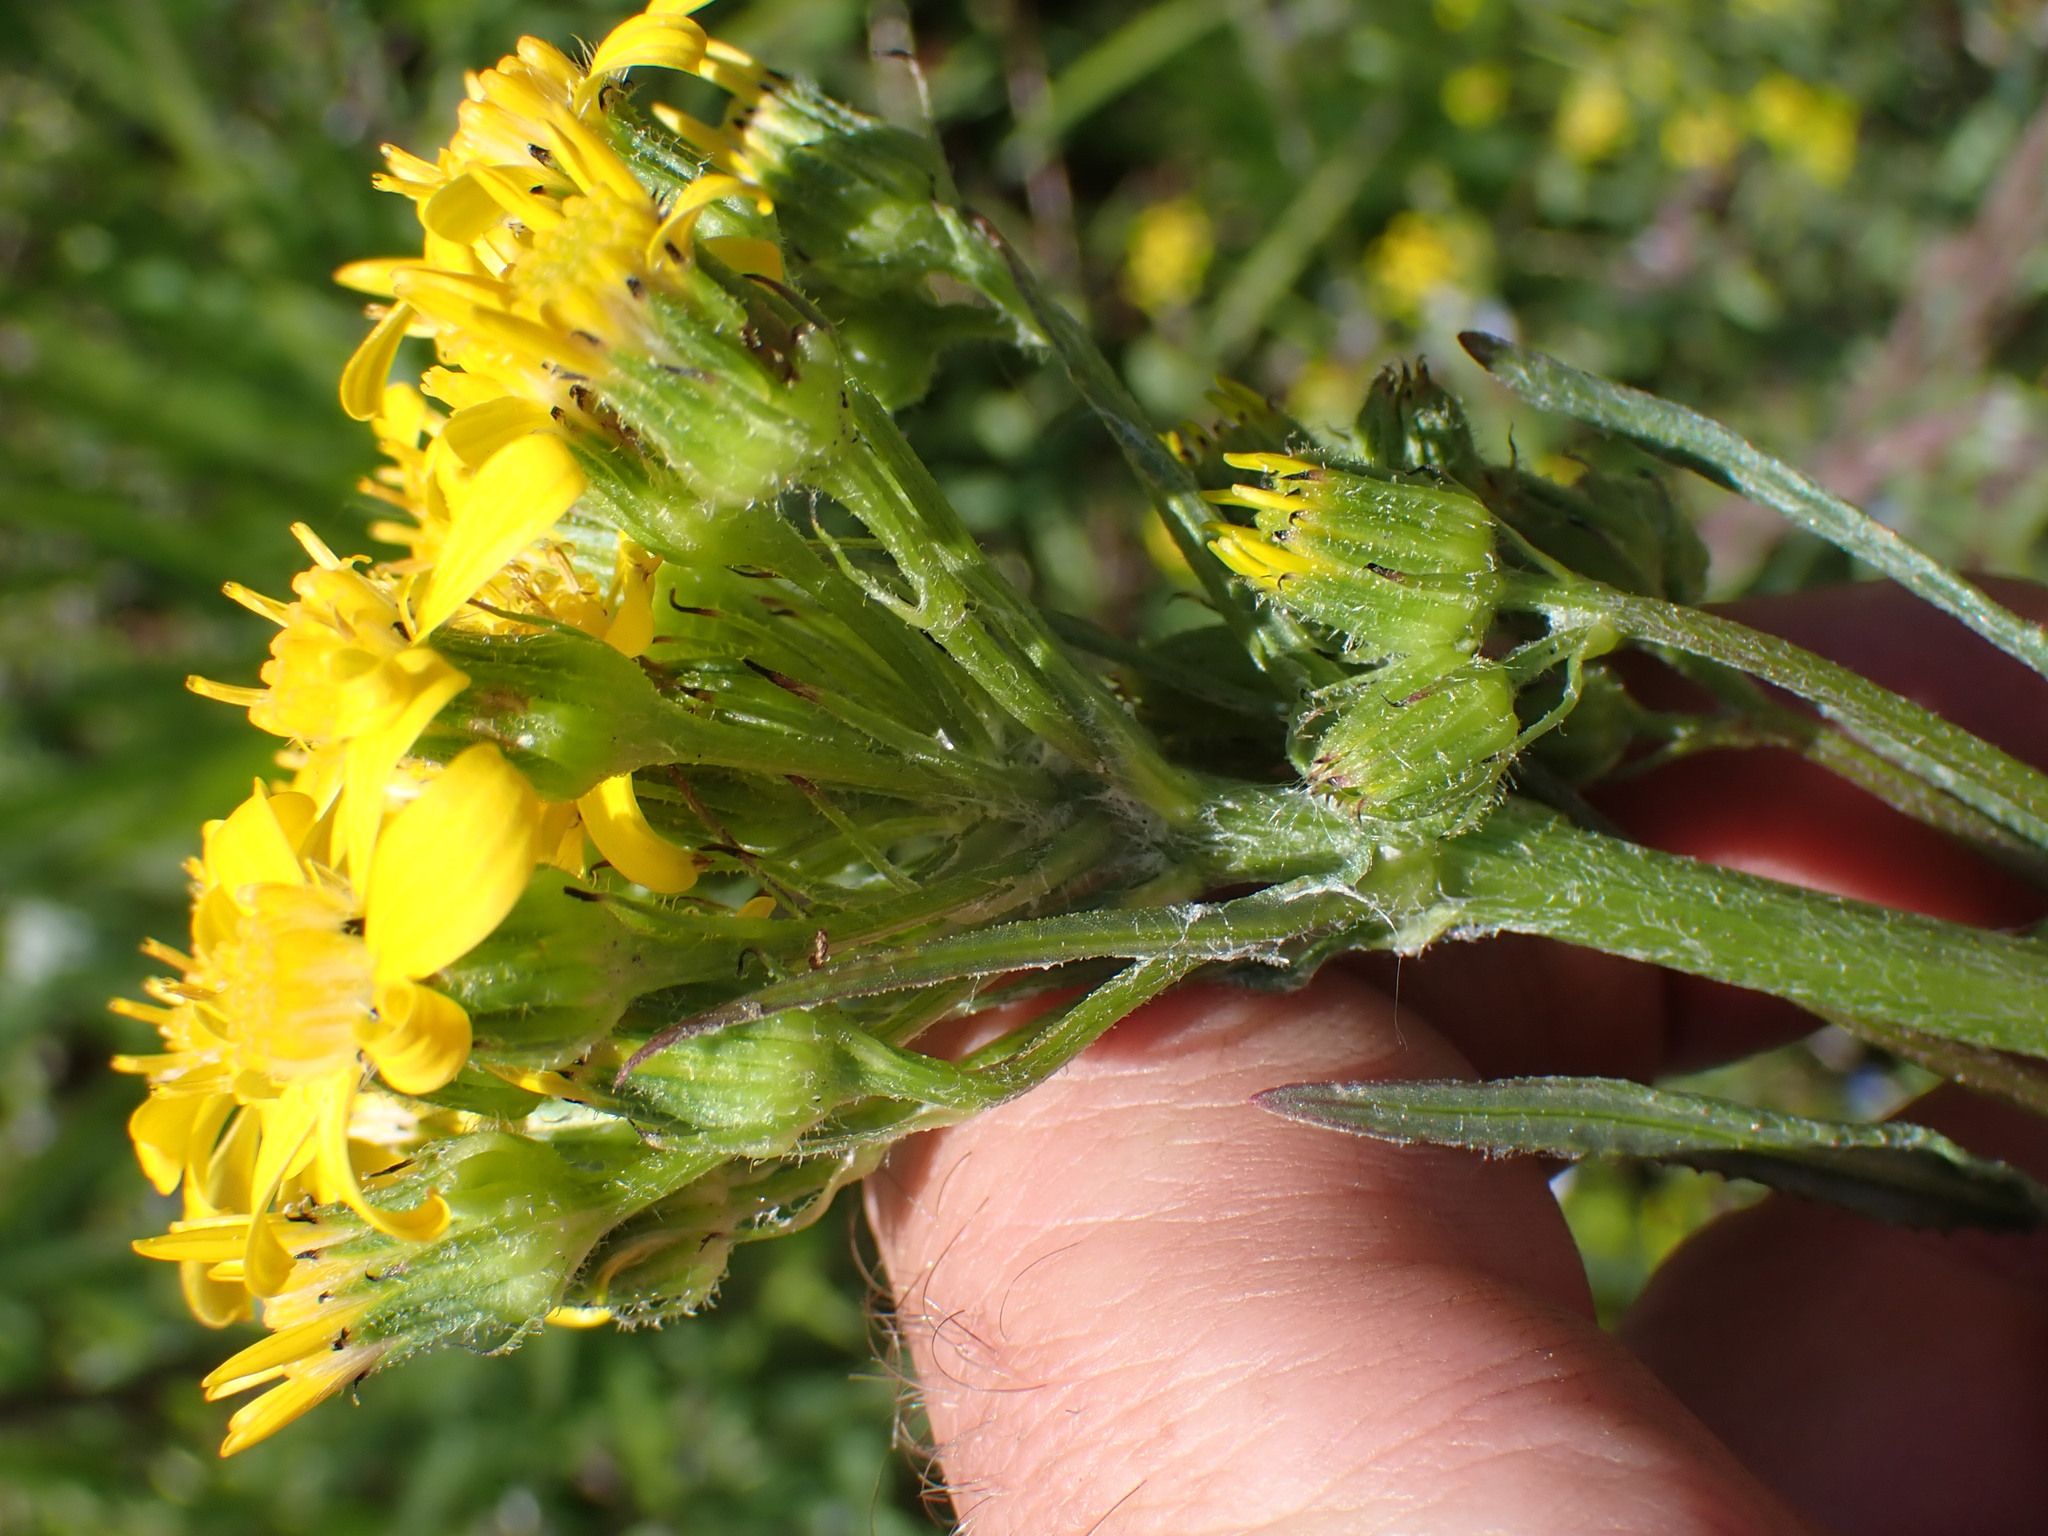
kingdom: Plantae
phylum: Tracheophyta
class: Magnoliopsida
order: Asterales
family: Asteraceae
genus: Senecio
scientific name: Senecio integerrimus
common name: Gaugeplant
